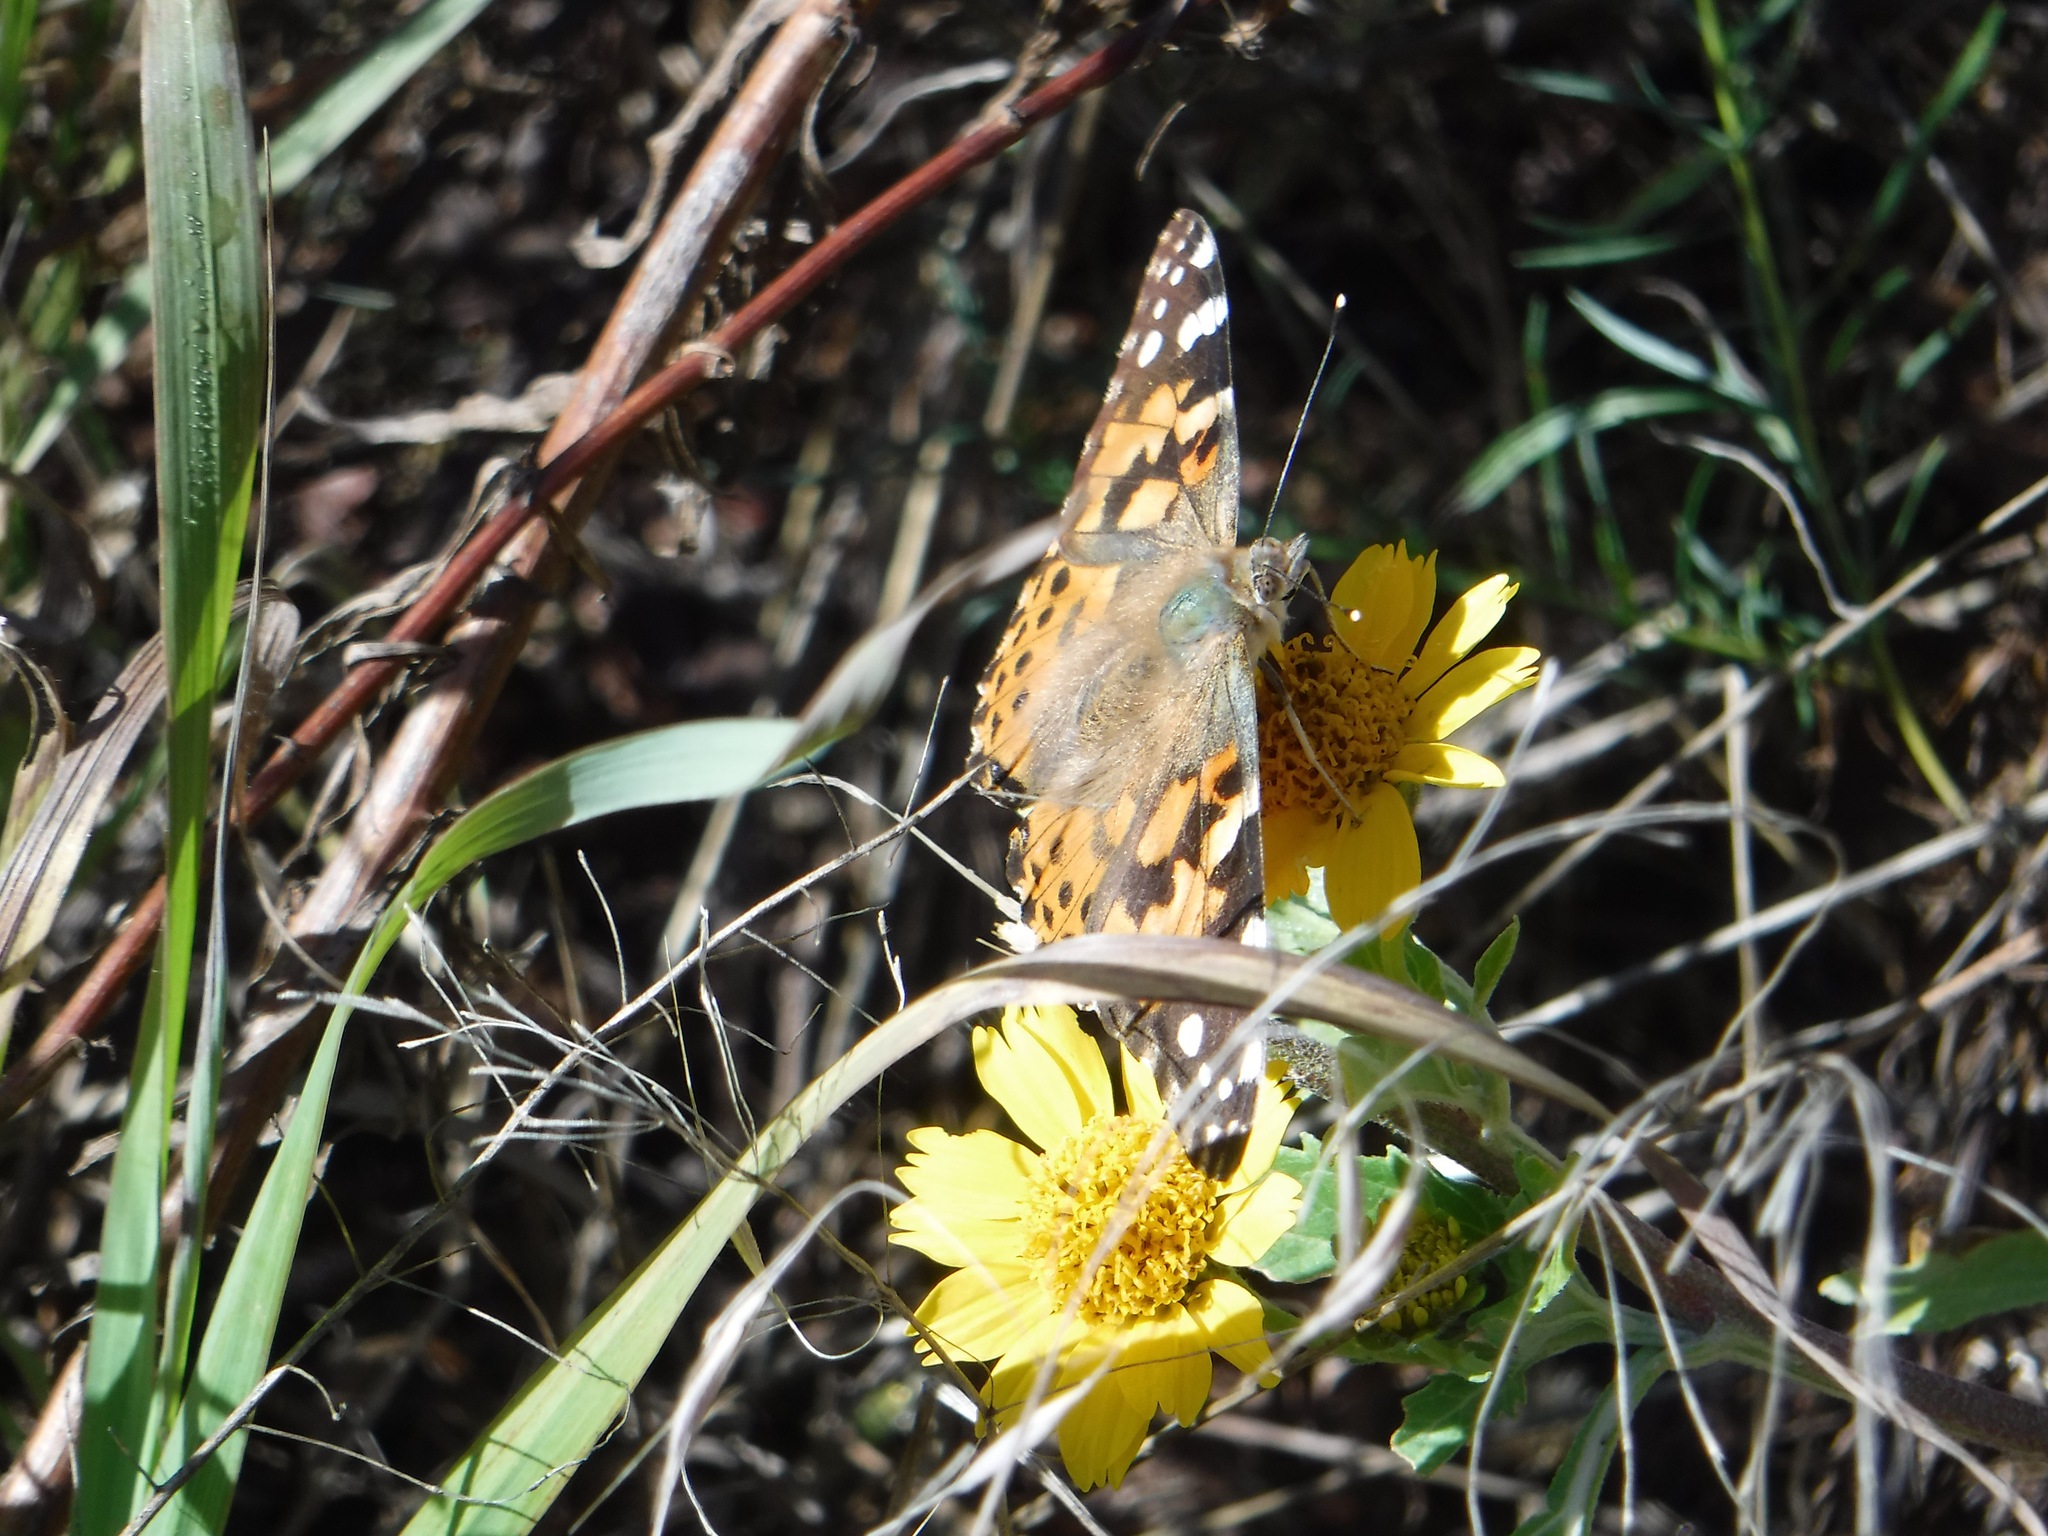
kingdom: Animalia
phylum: Arthropoda
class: Insecta
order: Lepidoptera
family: Nymphalidae
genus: Vanessa
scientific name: Vanessa cardui
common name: Painted lady
